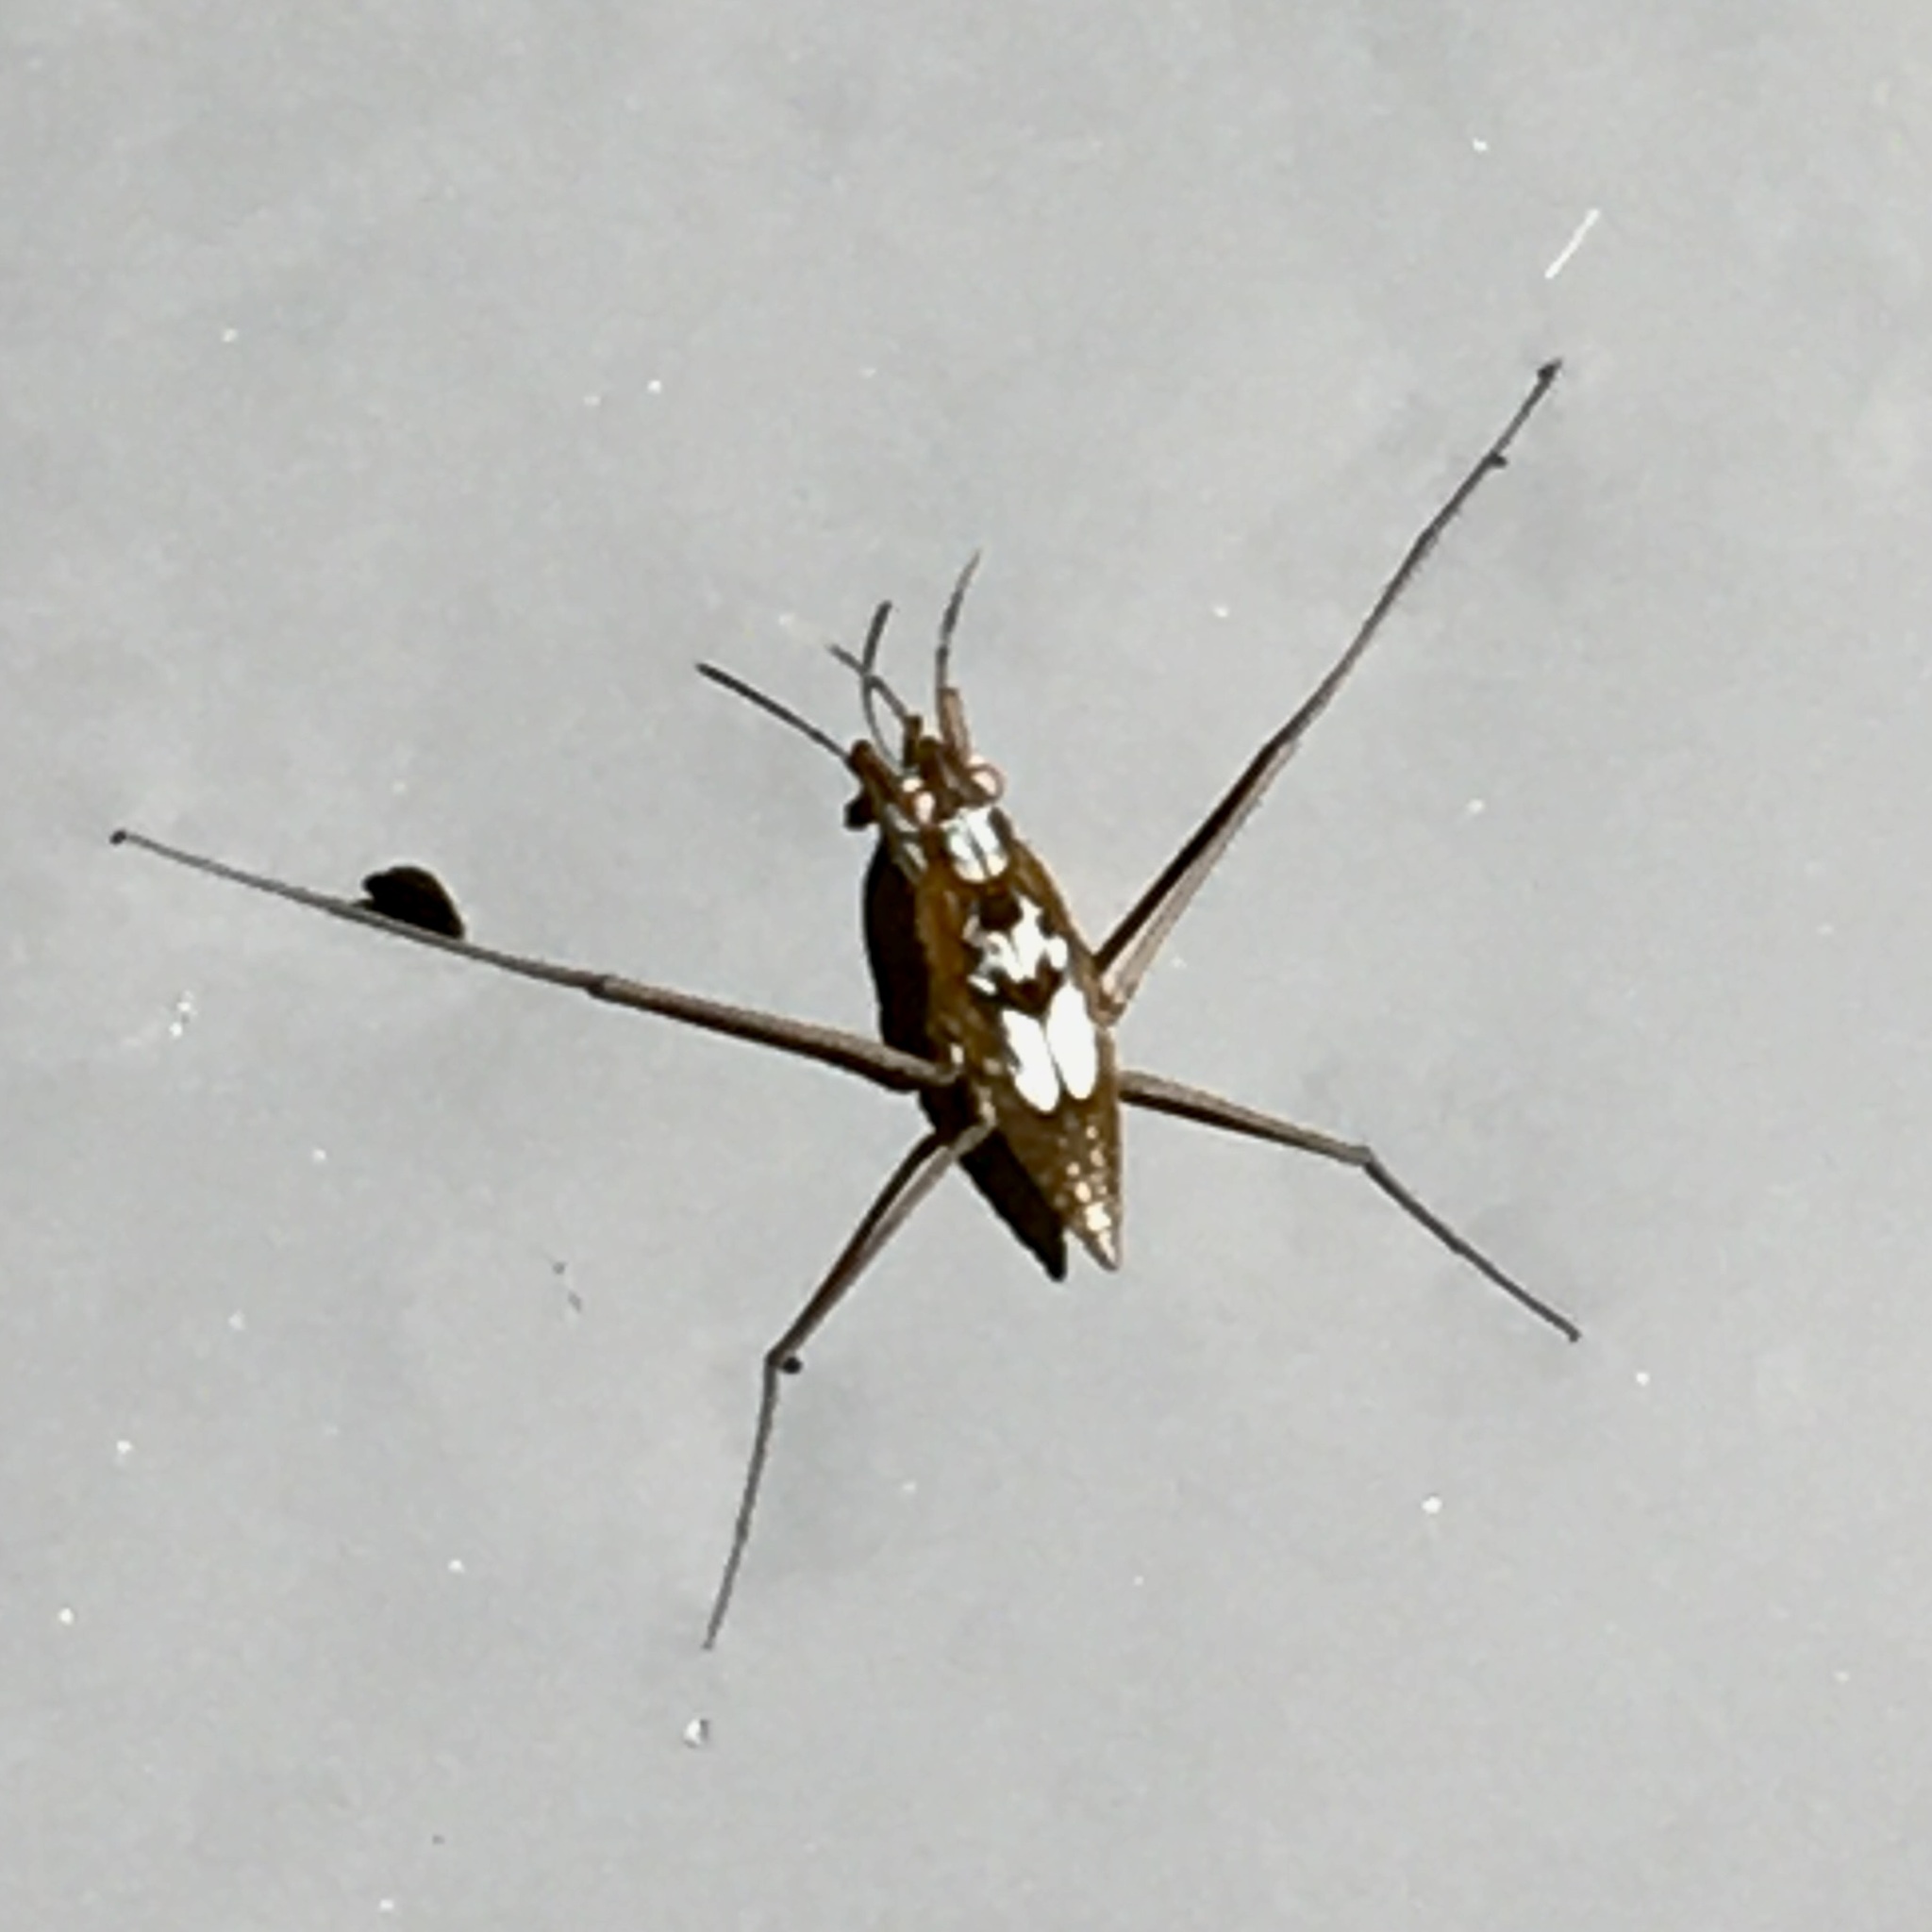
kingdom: Animalia
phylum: Arthropoda
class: Insecta
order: Hemiptera
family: Gerridae
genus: Gerris
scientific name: Gerris
